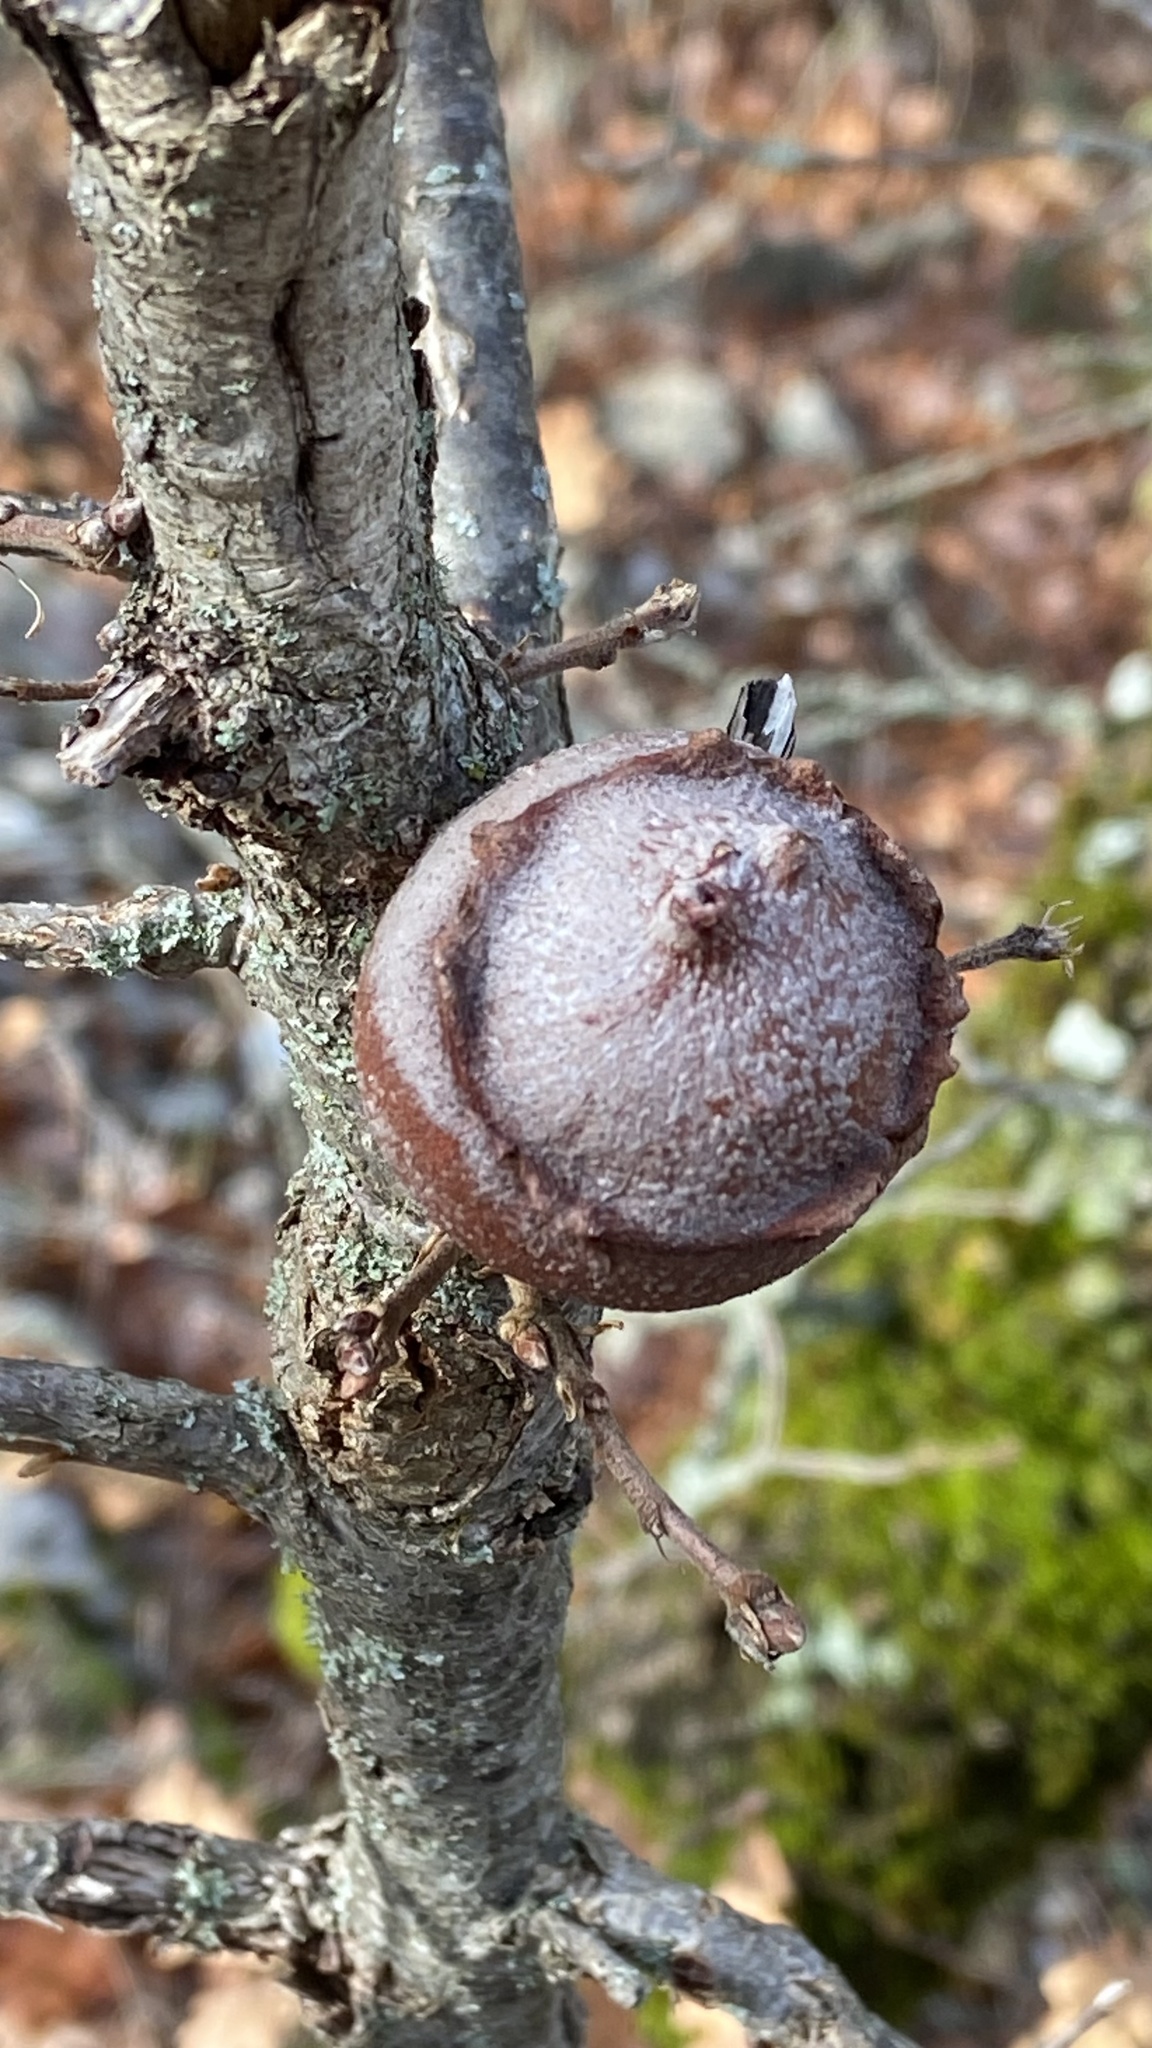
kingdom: Animalia
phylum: Arthropoda
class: Insecta
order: Hymenoptera
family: Cynipidae
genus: Andricus
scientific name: Andricus quercustozae
